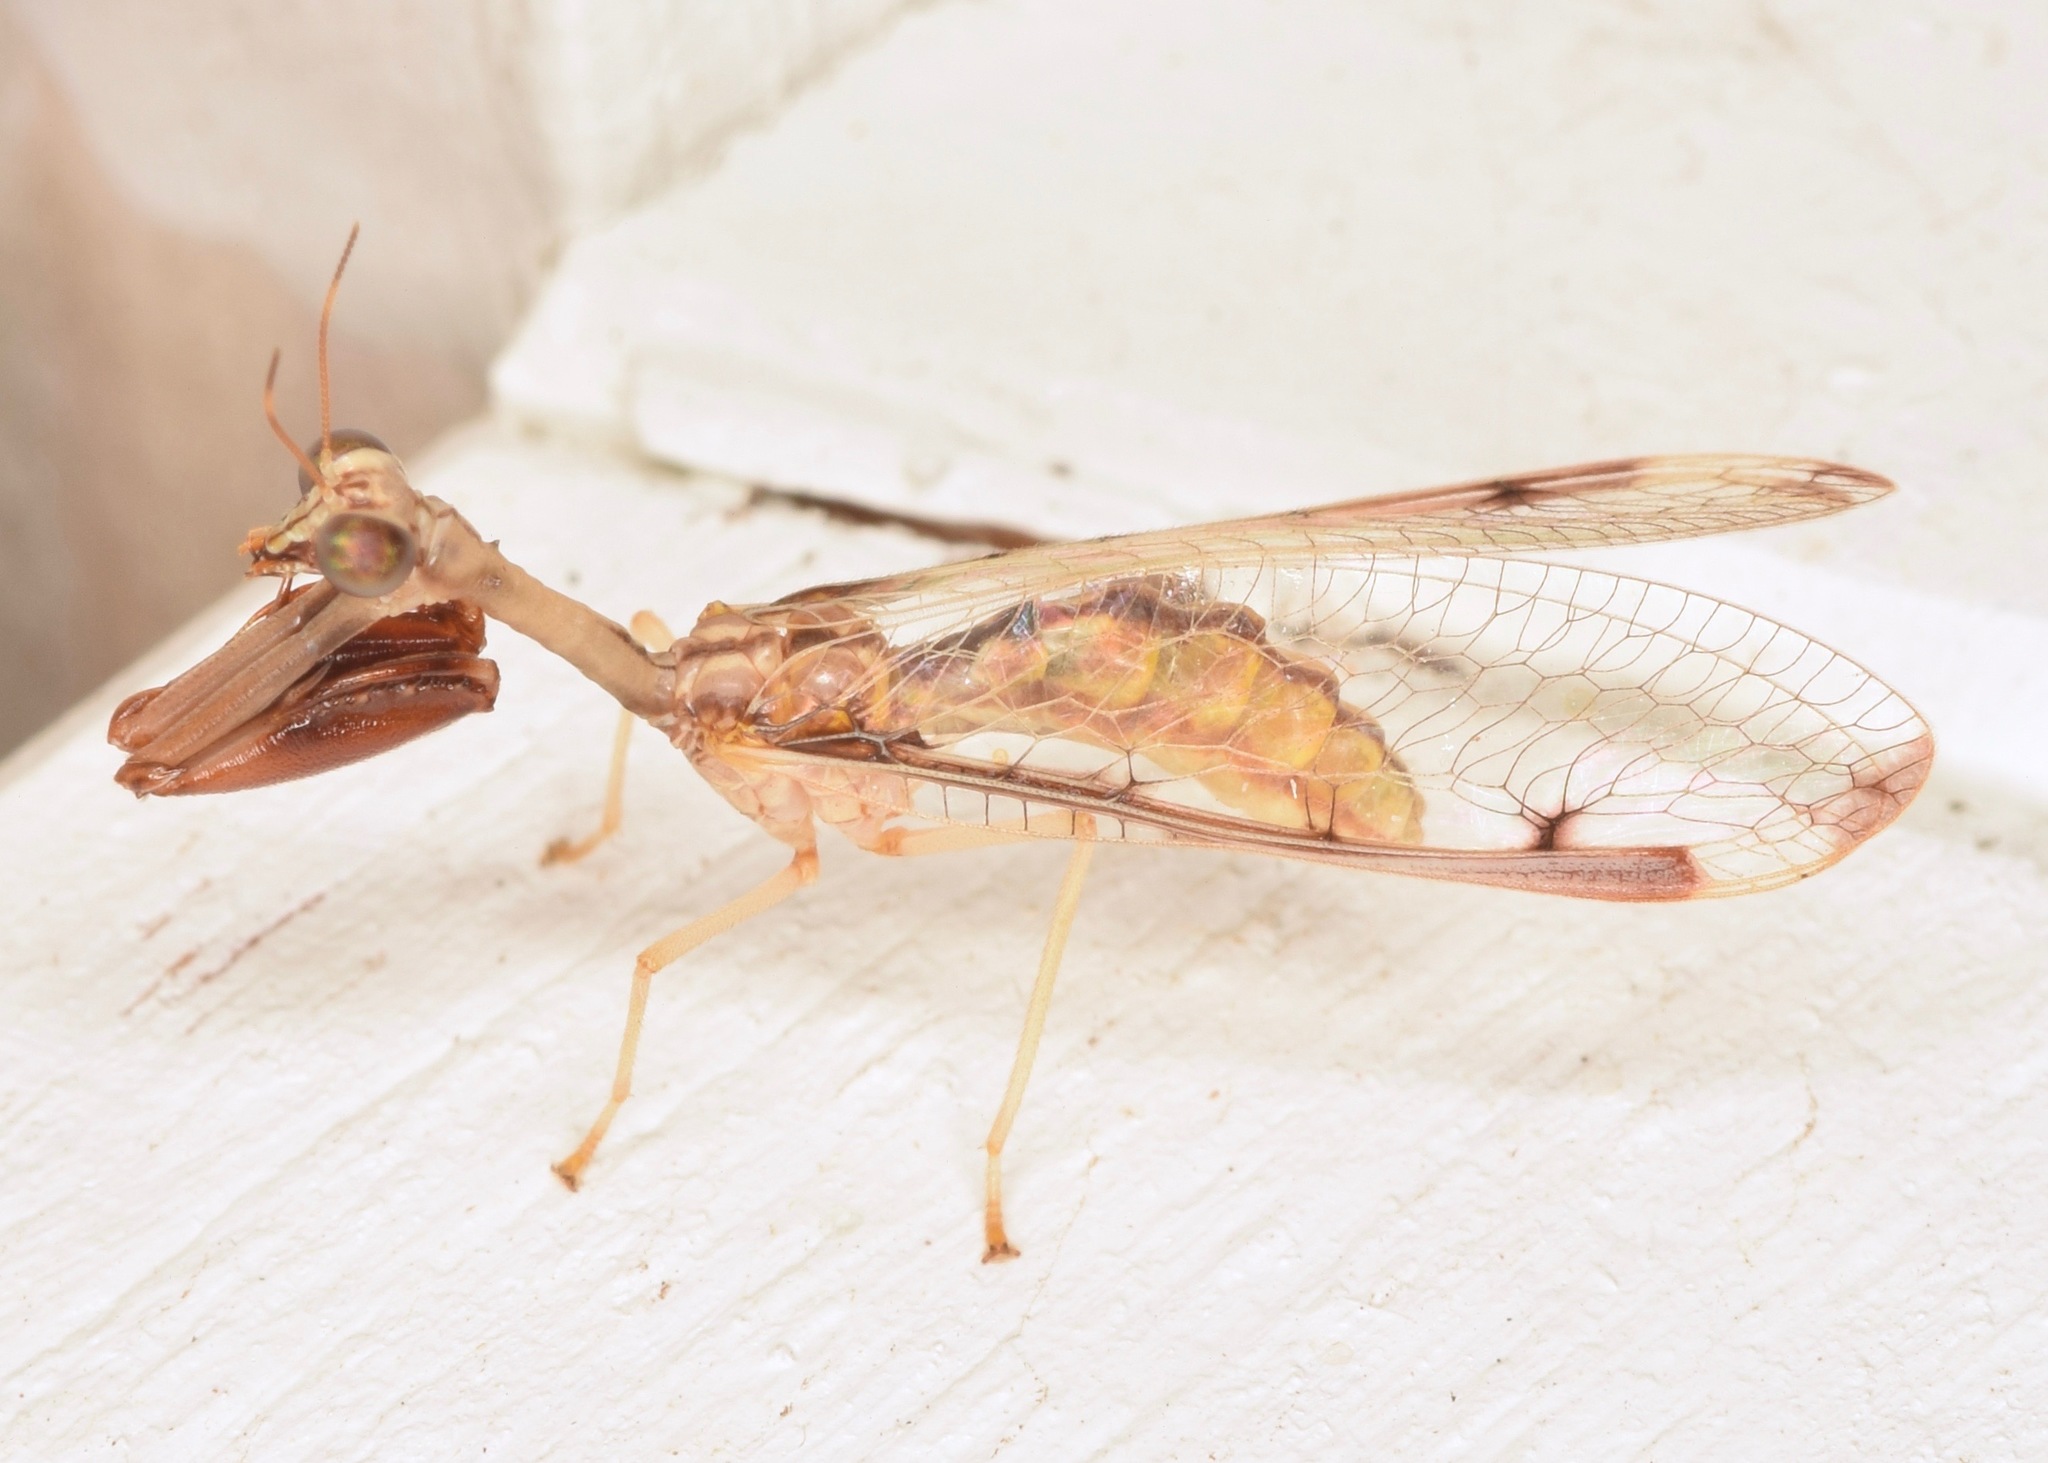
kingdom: Animalia
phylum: Arthropoda
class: Insecta
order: Neuroptera
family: Mantispidae
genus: Dicromantispa
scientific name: Dicromantispa interrupta
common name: Four-spotted mantidfly
